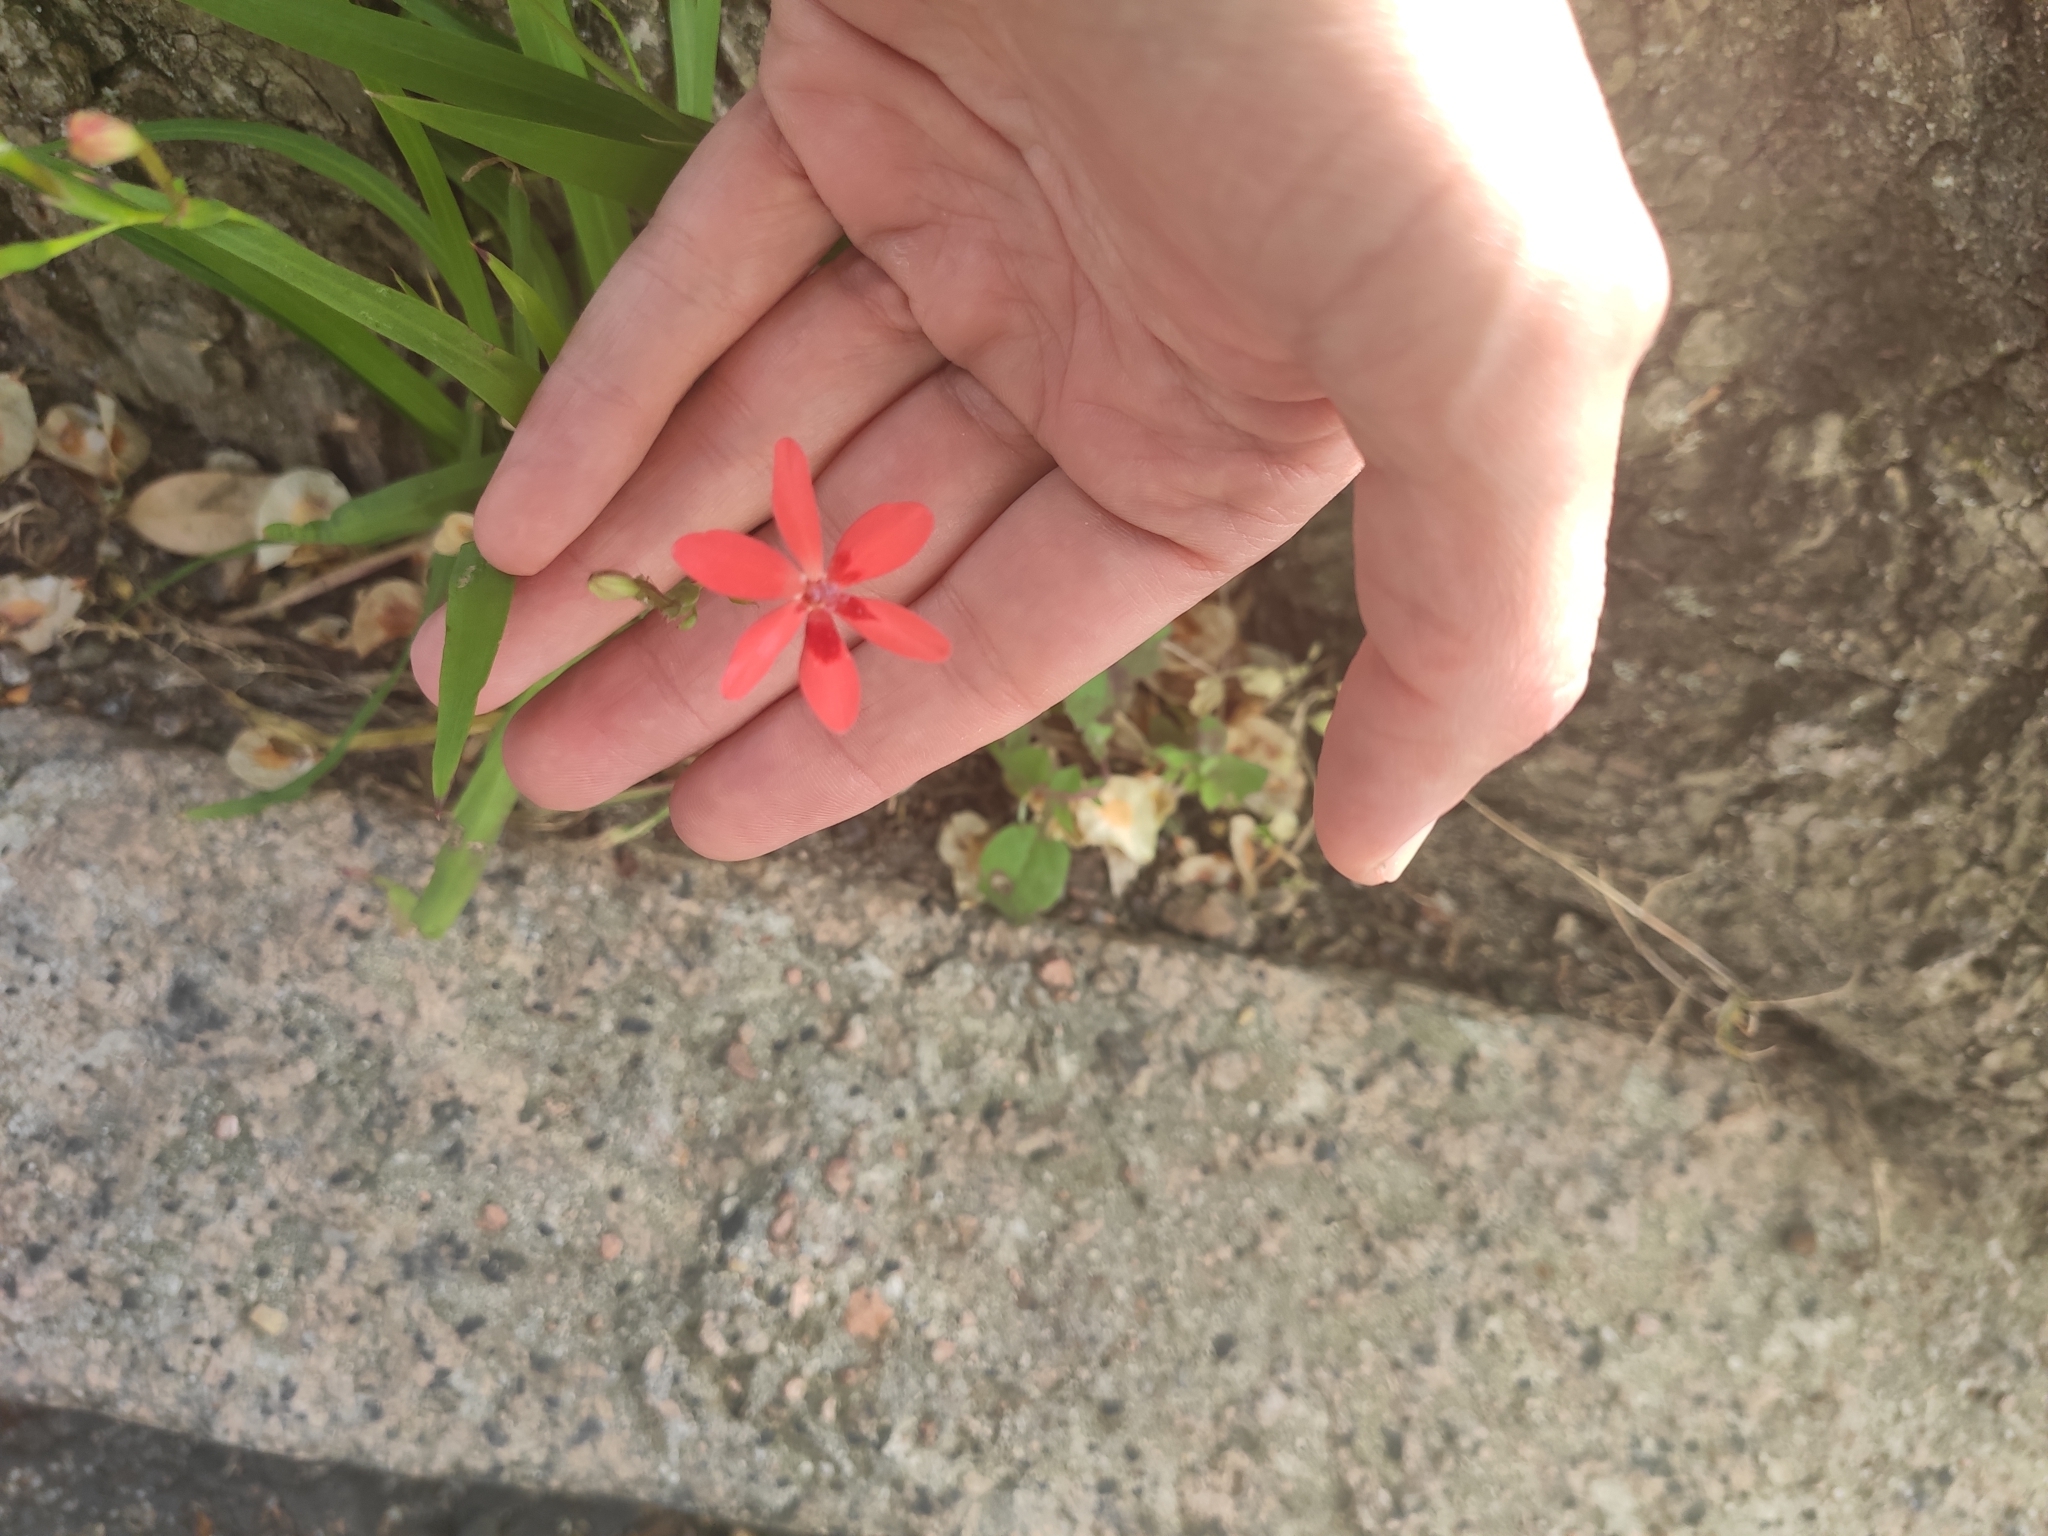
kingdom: Plantae
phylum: Tracheophyta
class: Liliopsida
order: Asparagales
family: Iridaceae
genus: Freesia
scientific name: Freesia laxa
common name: False freesia
